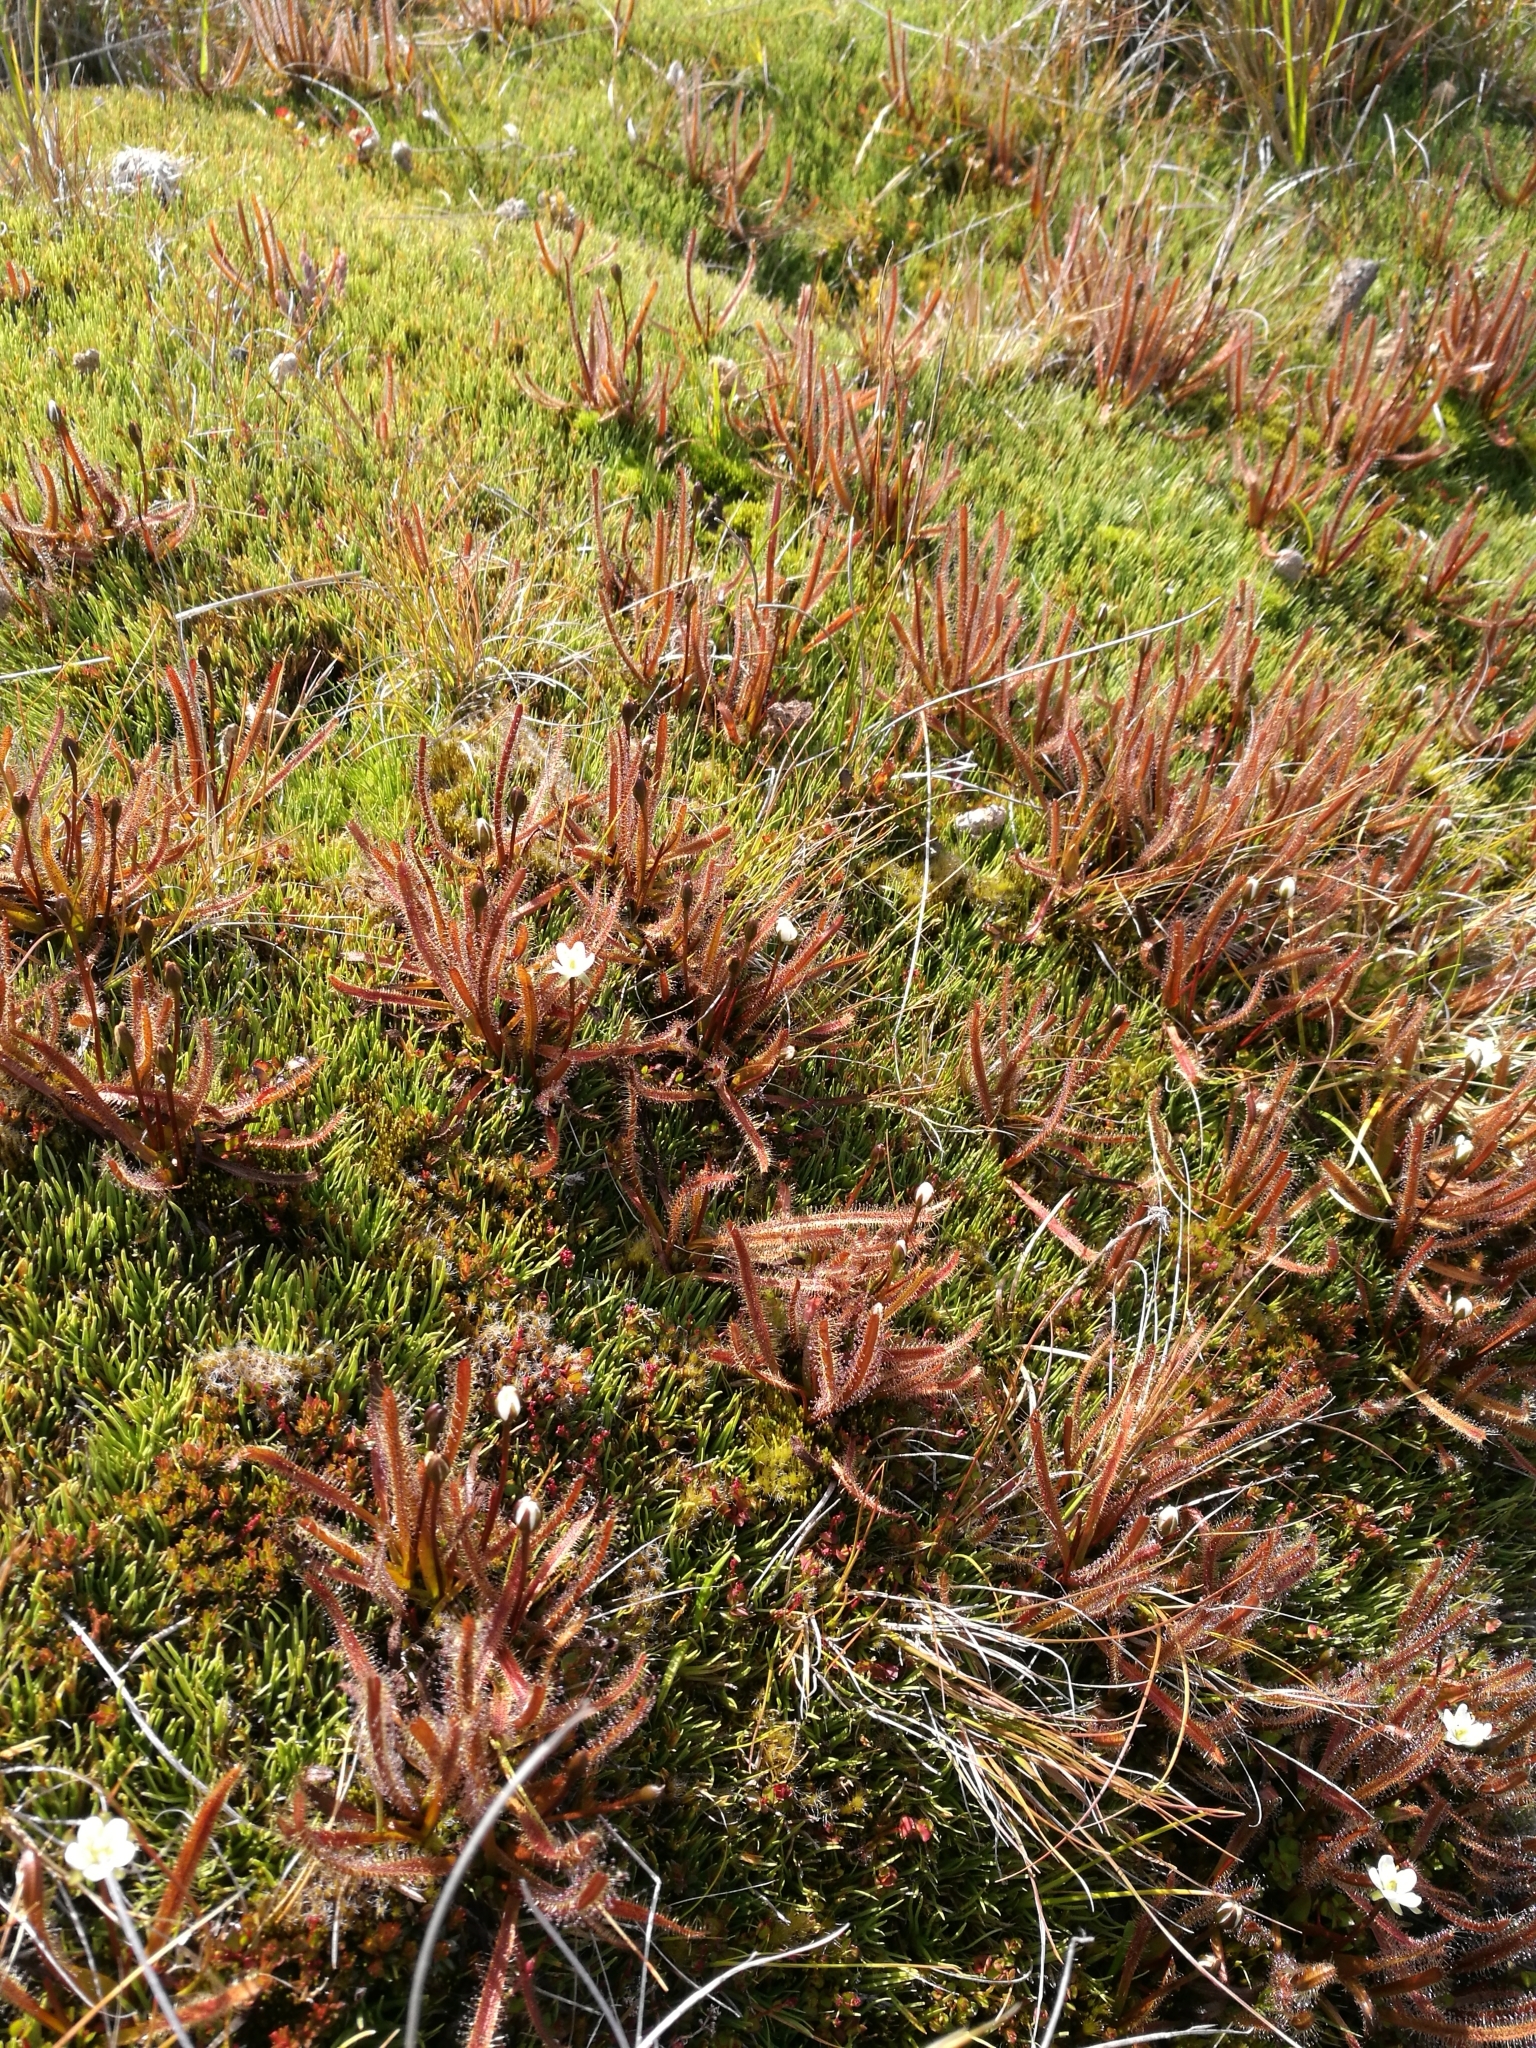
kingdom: Plantae
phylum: Tracheophyta
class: Magnoliopsida
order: Caryophyllales
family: Droseraceae
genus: Drosera
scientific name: Drosera arcturi
